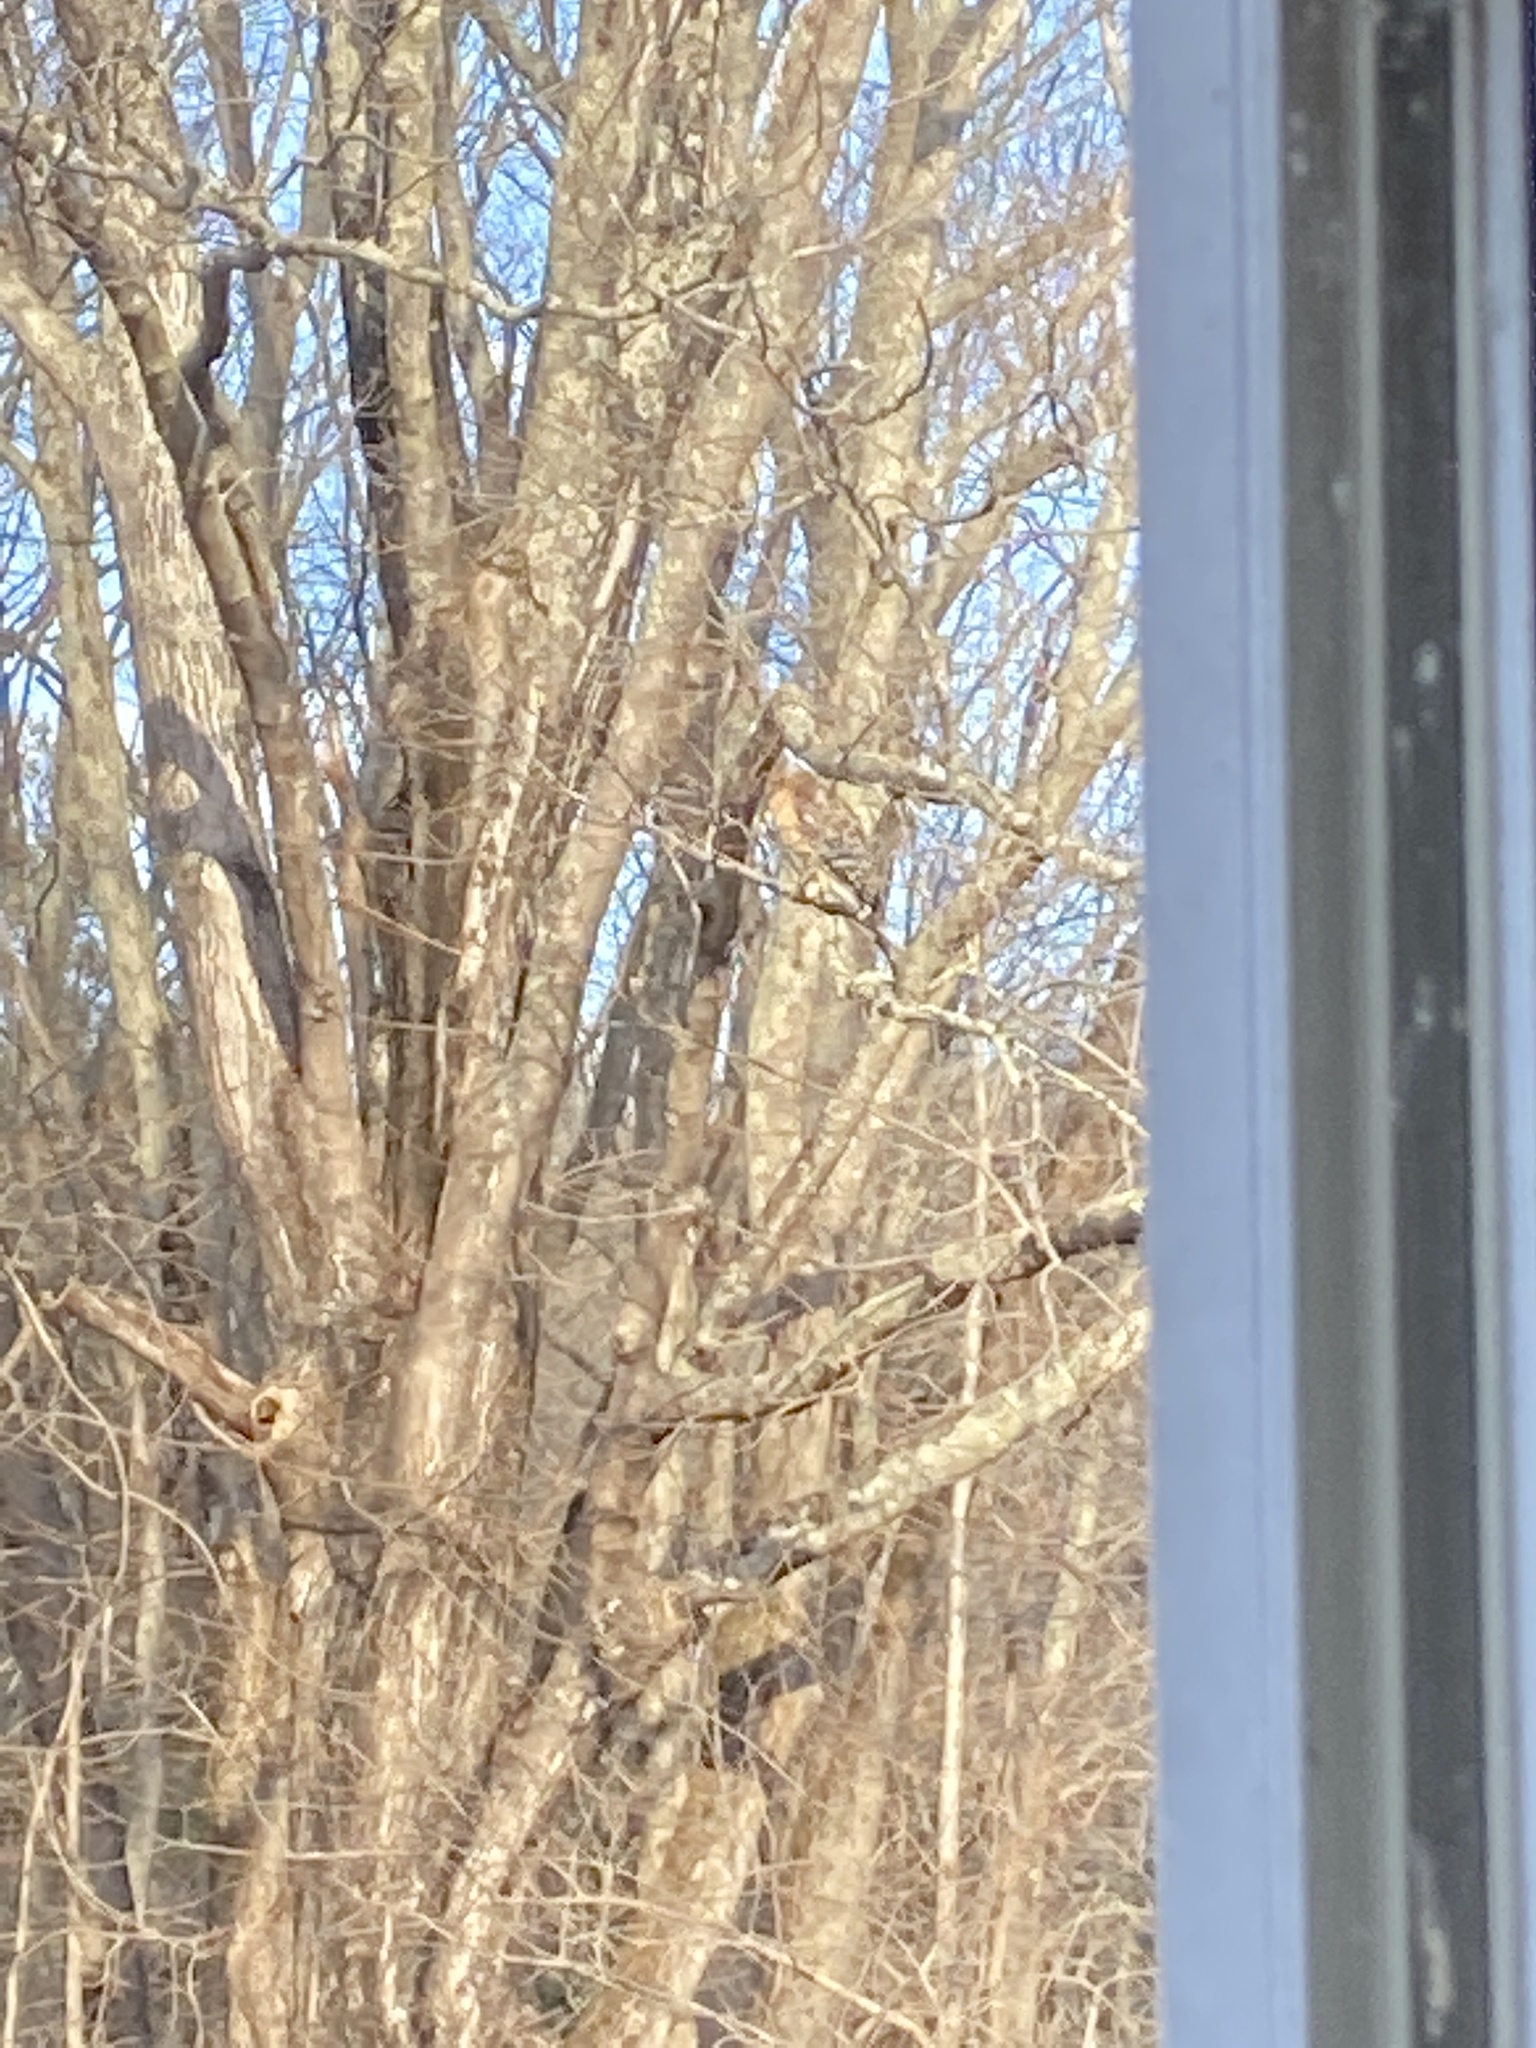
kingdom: Animalia
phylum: Chordata
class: Aves
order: Accipitriformes
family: Accipitridae
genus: Buteo
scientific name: Buteo lineatus
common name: Red-shouldered hawk
